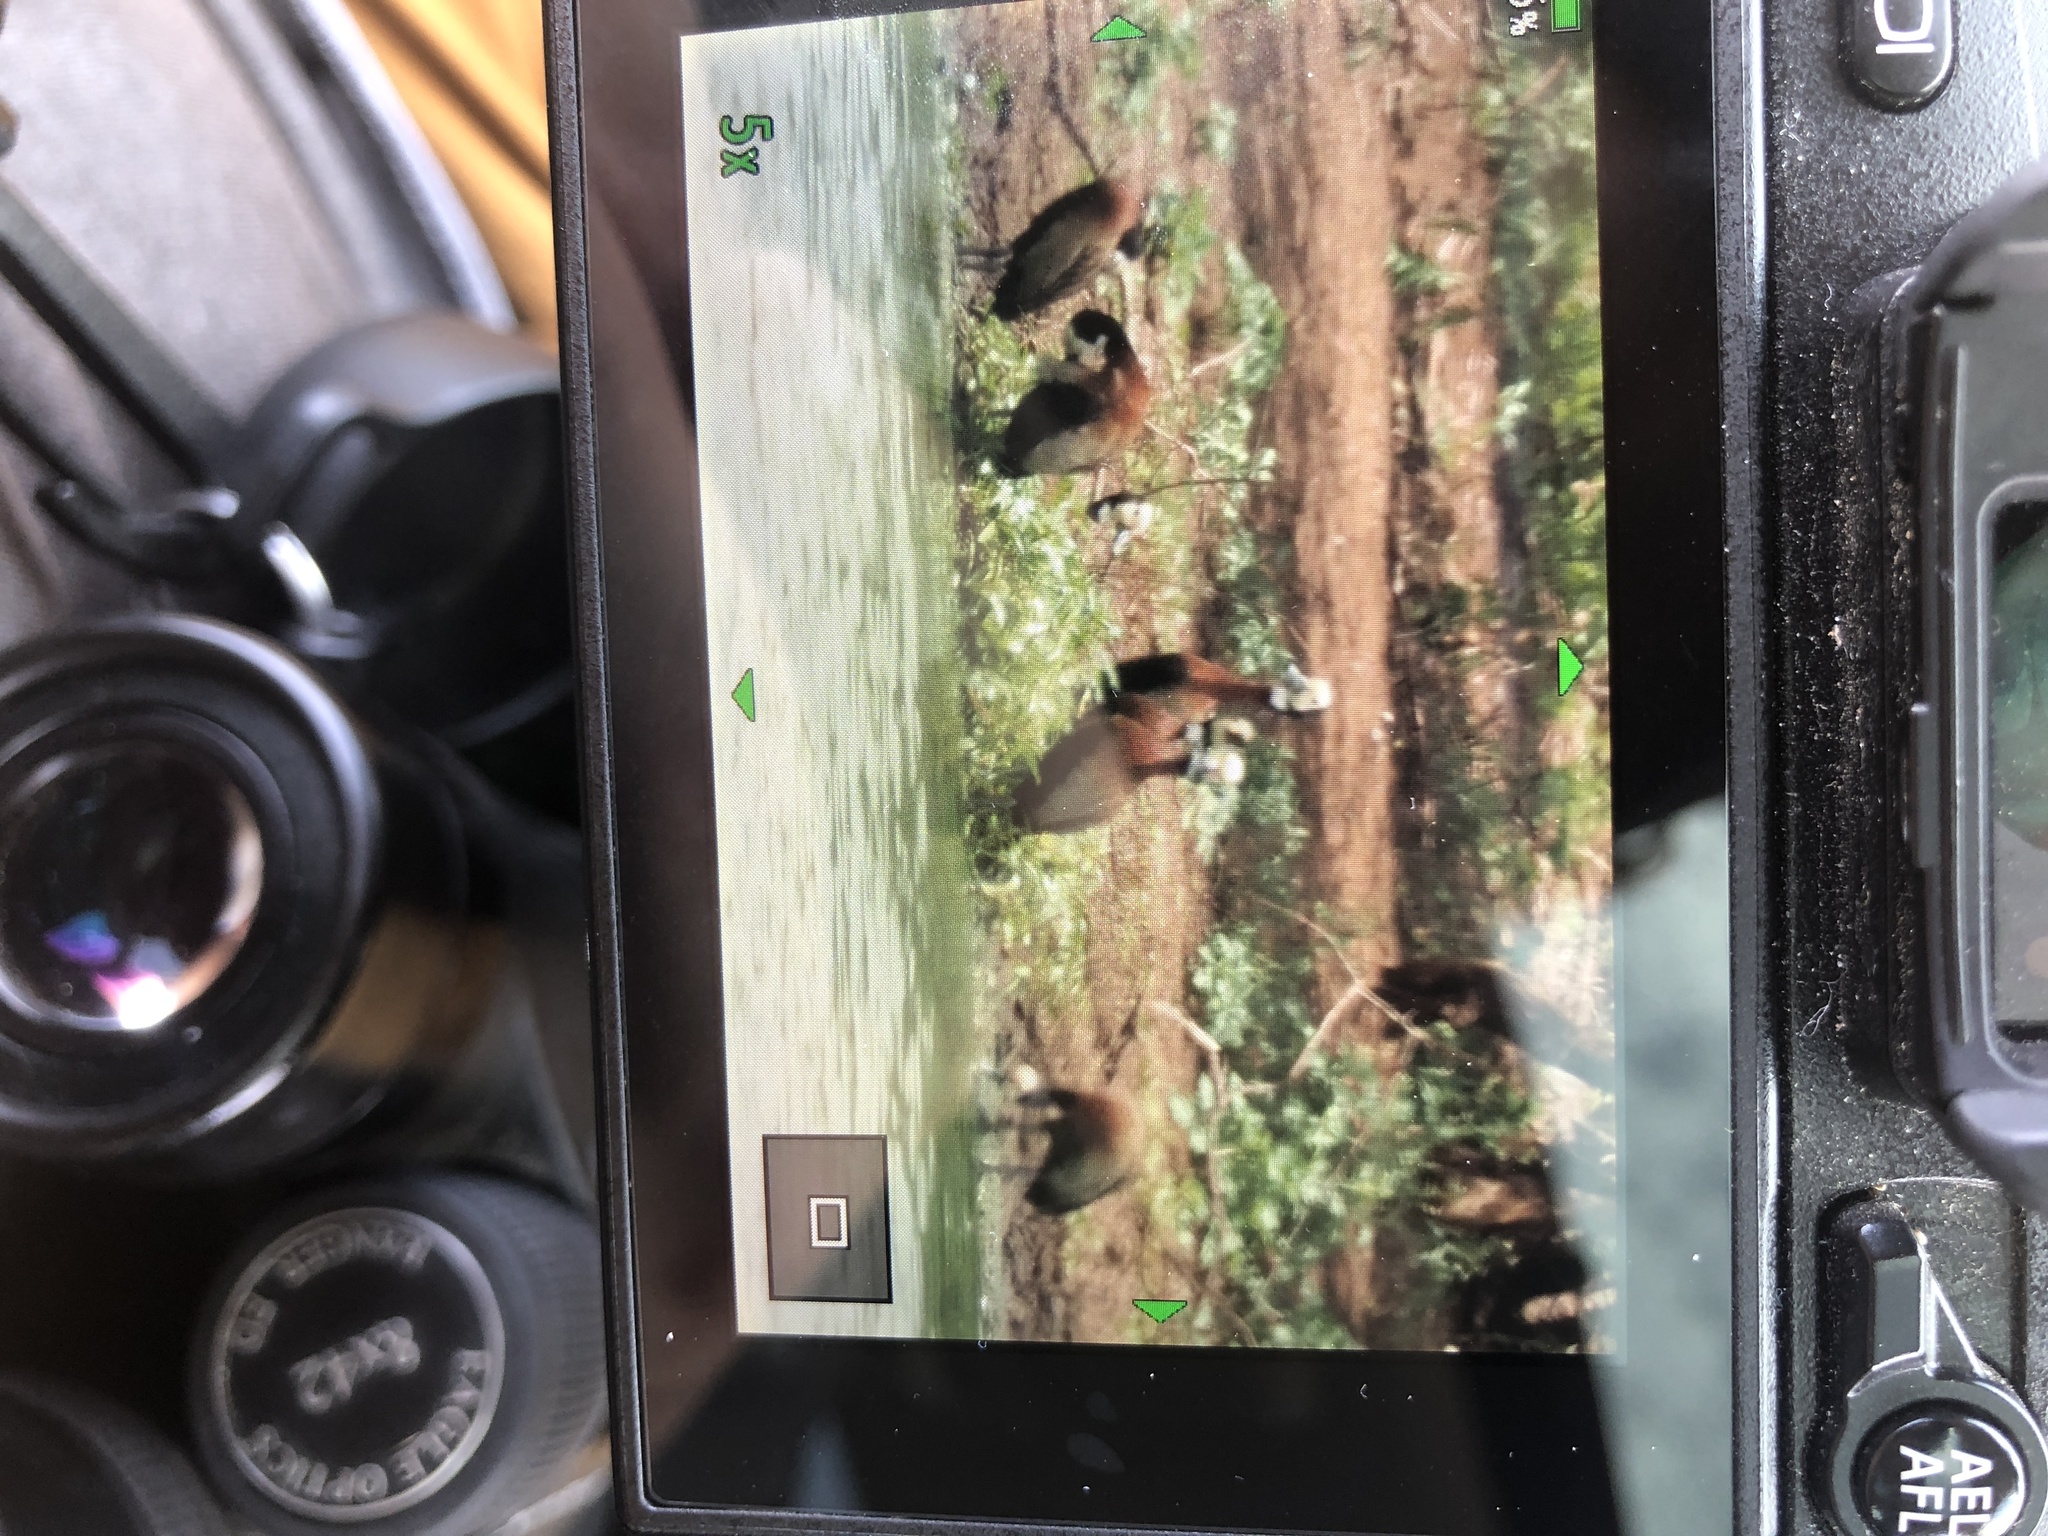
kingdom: Animalia
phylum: Chordata
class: Aves
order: Anseriformes
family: Anatidae
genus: Dendrocygna
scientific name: Dendrocygna viduata
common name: White-faced whistling duck
